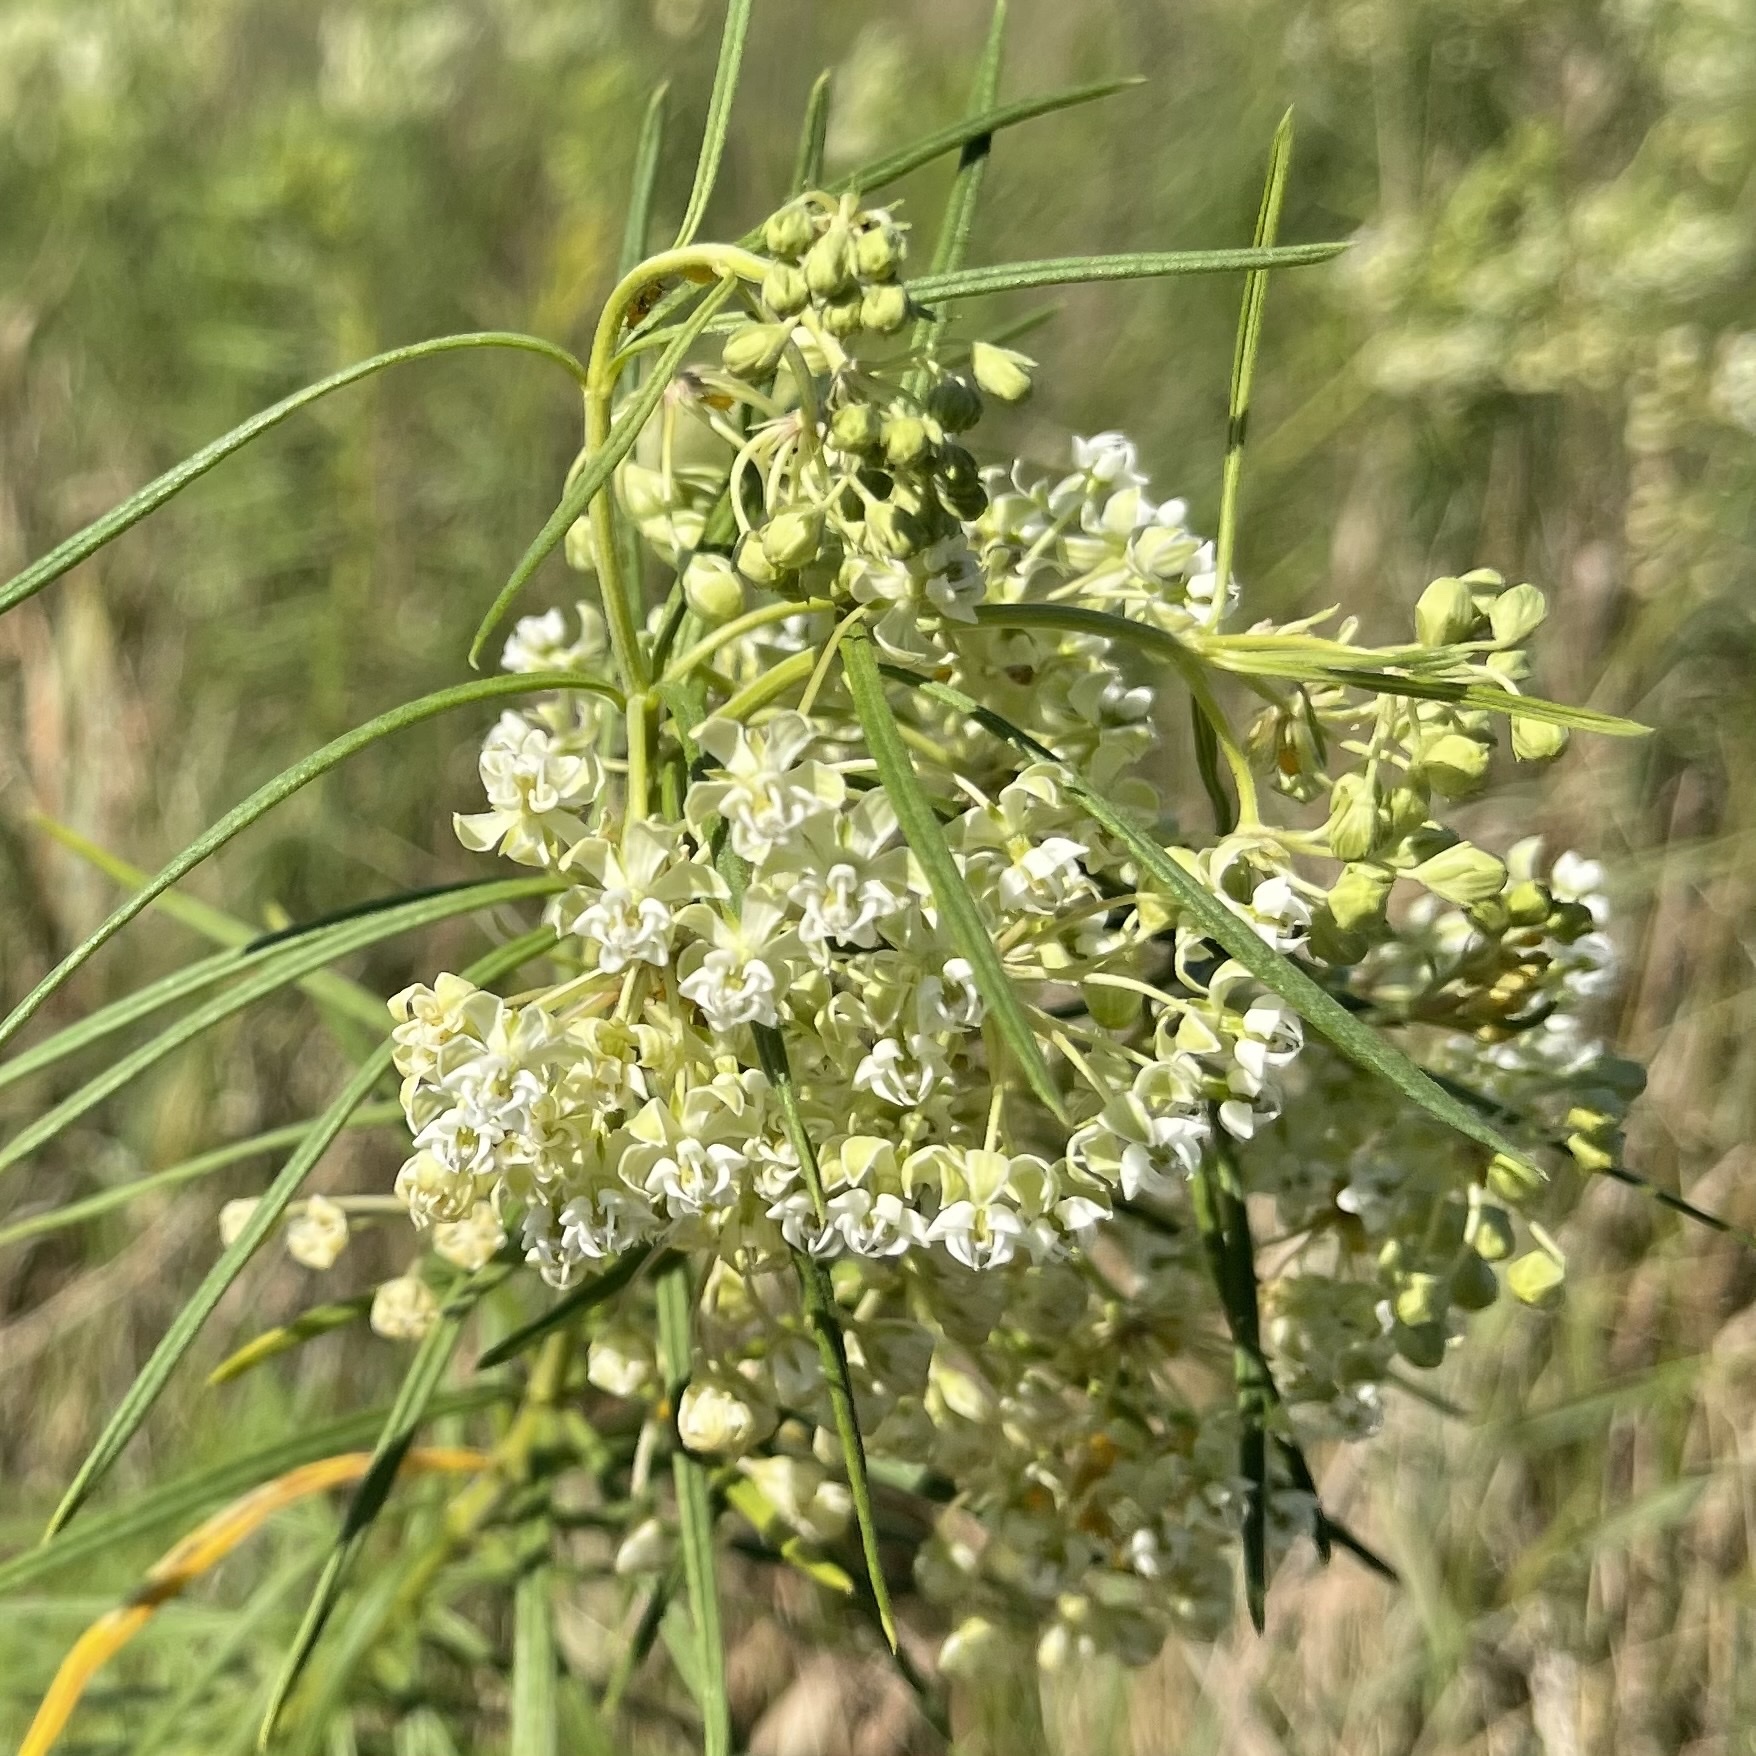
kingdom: Plantae
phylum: Tracheophyta
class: Magnoliopsida
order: Gentianales
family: Apocynaceae
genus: Asclepias
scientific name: Asclepias verticillata
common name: Eastern whorled milkweed
